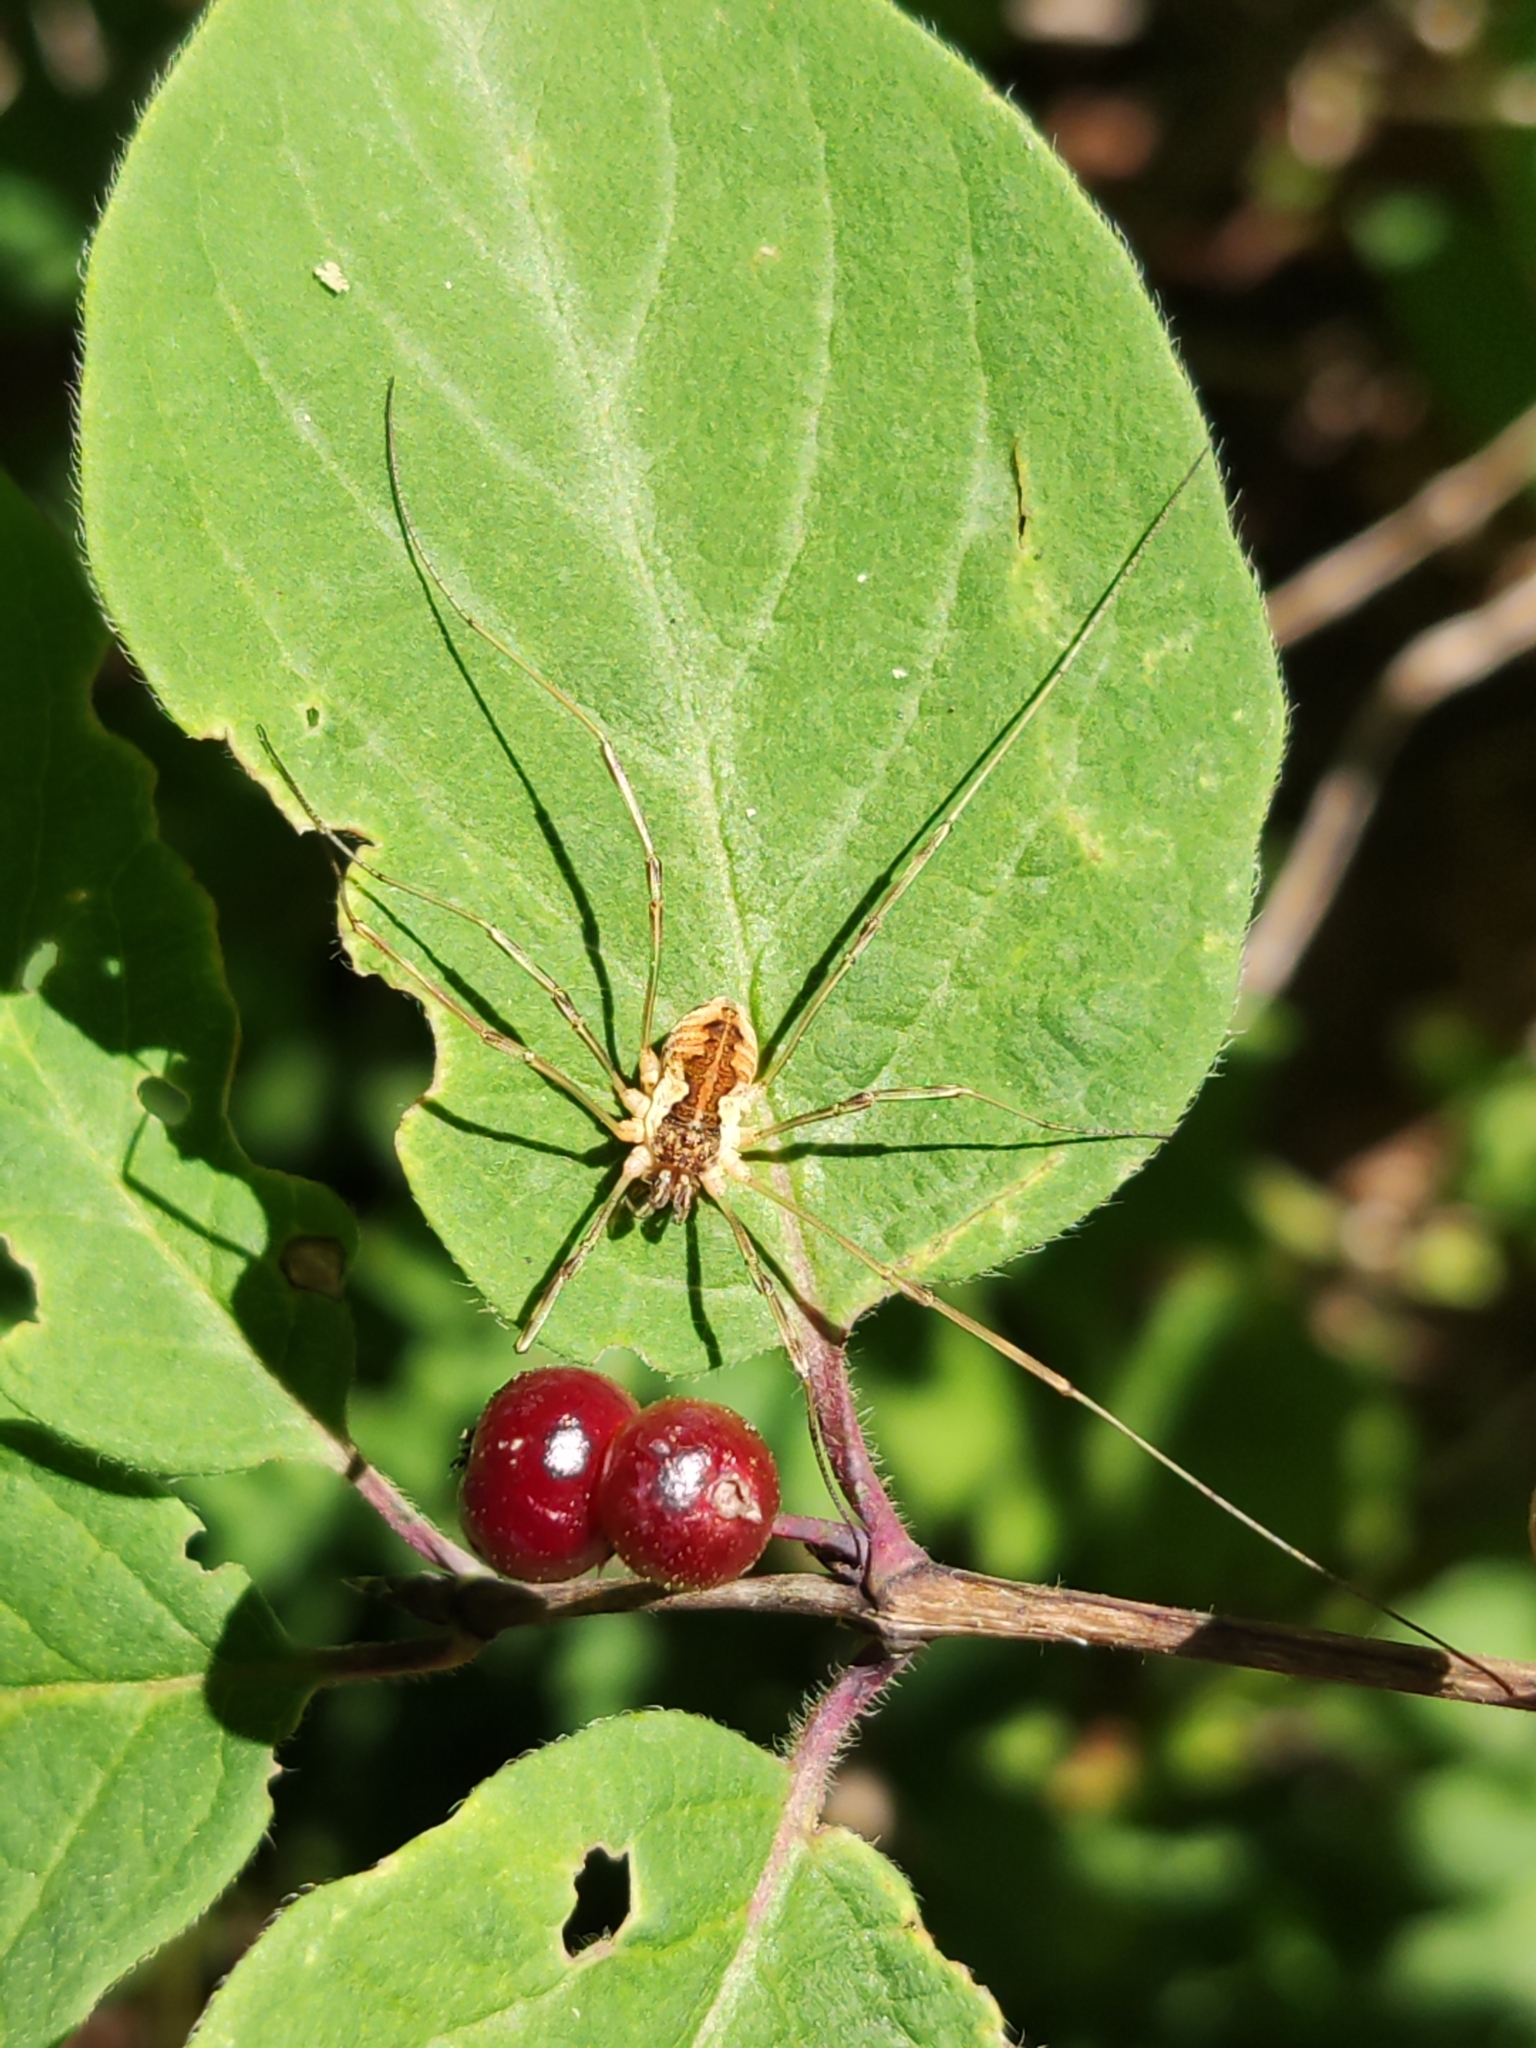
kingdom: Animalia
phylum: Arthropoda
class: Arachnida
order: Opiliones
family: Phalangiidae
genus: Mitopus
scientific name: Mitopus morio
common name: Saddleback harvestman
